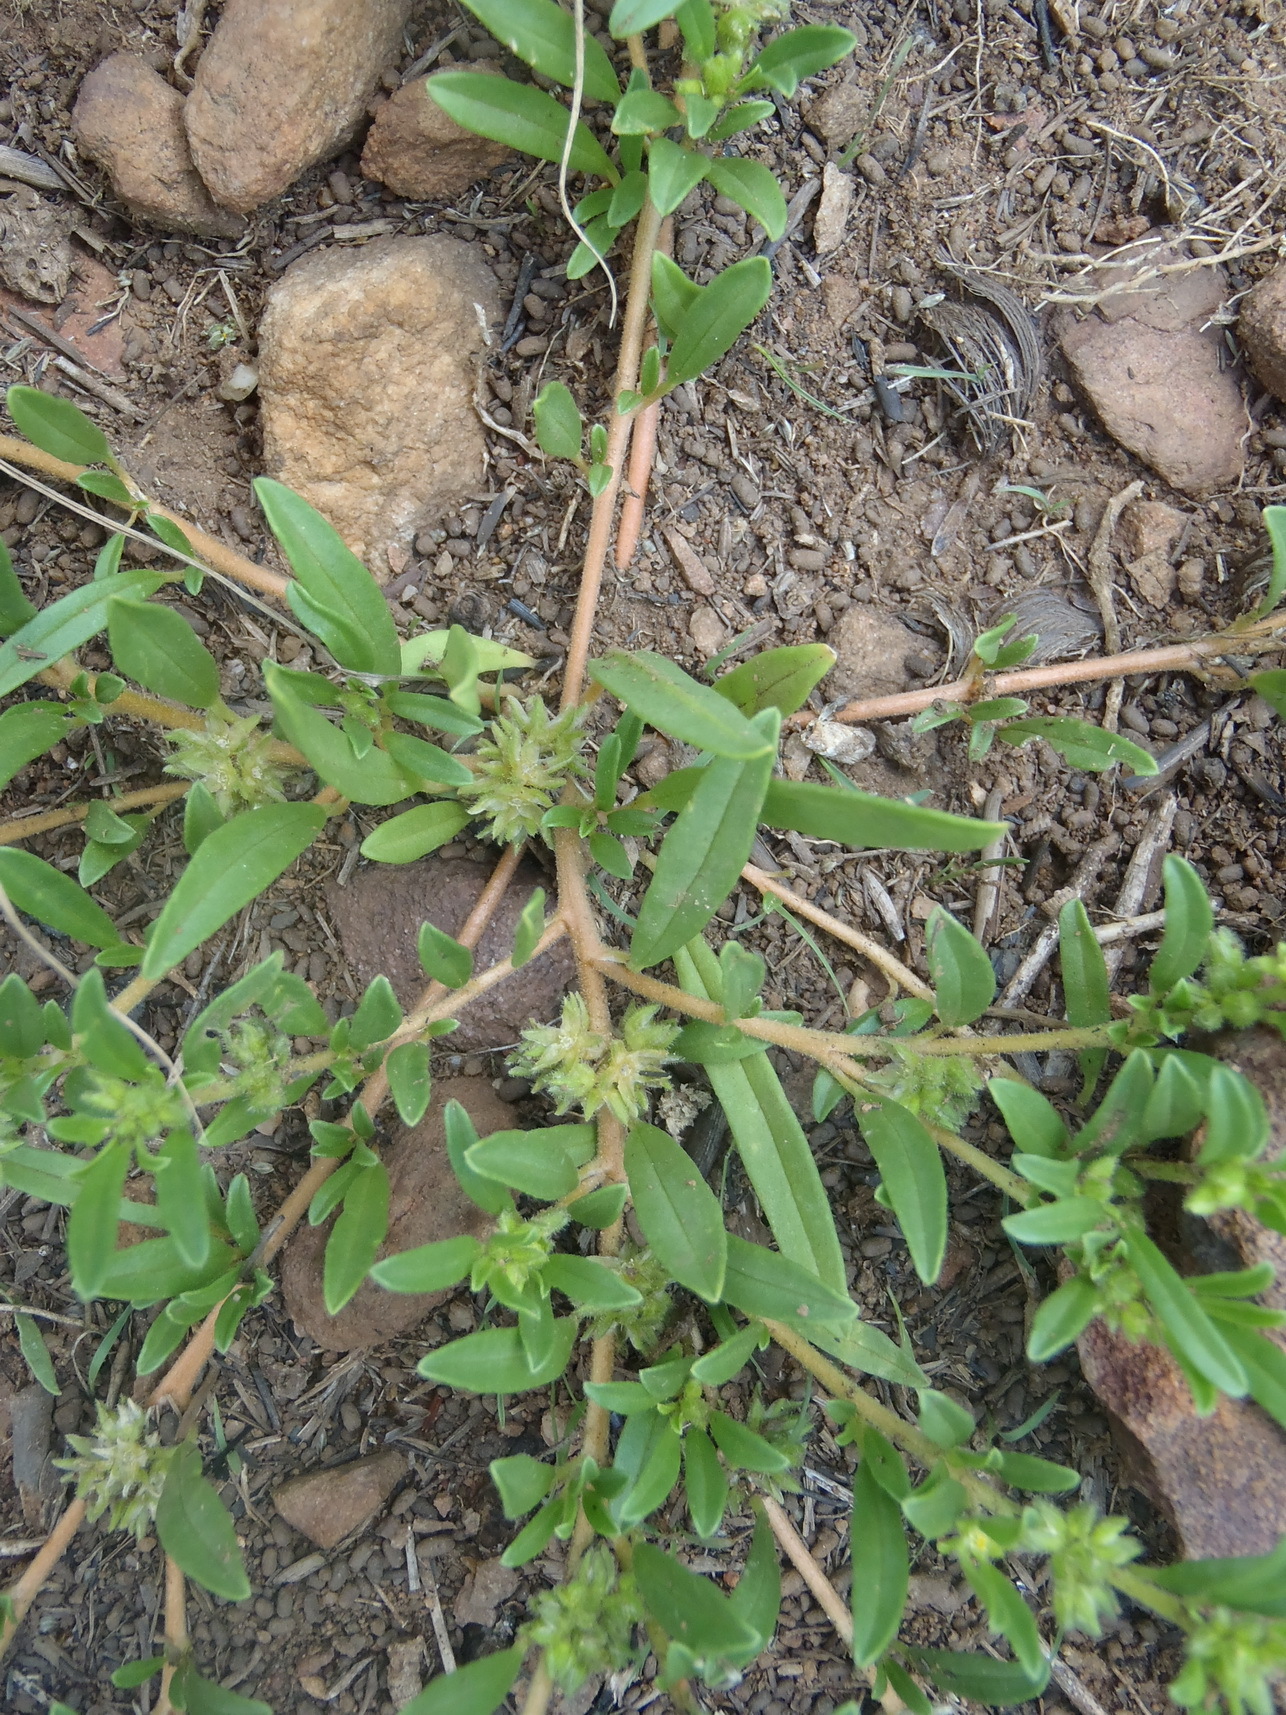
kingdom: Plantae
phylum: Tracheophyta
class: Magnoliopsida
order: Caryophyllales
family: Limeaceae
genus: Limeum
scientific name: Limeum viscosum
